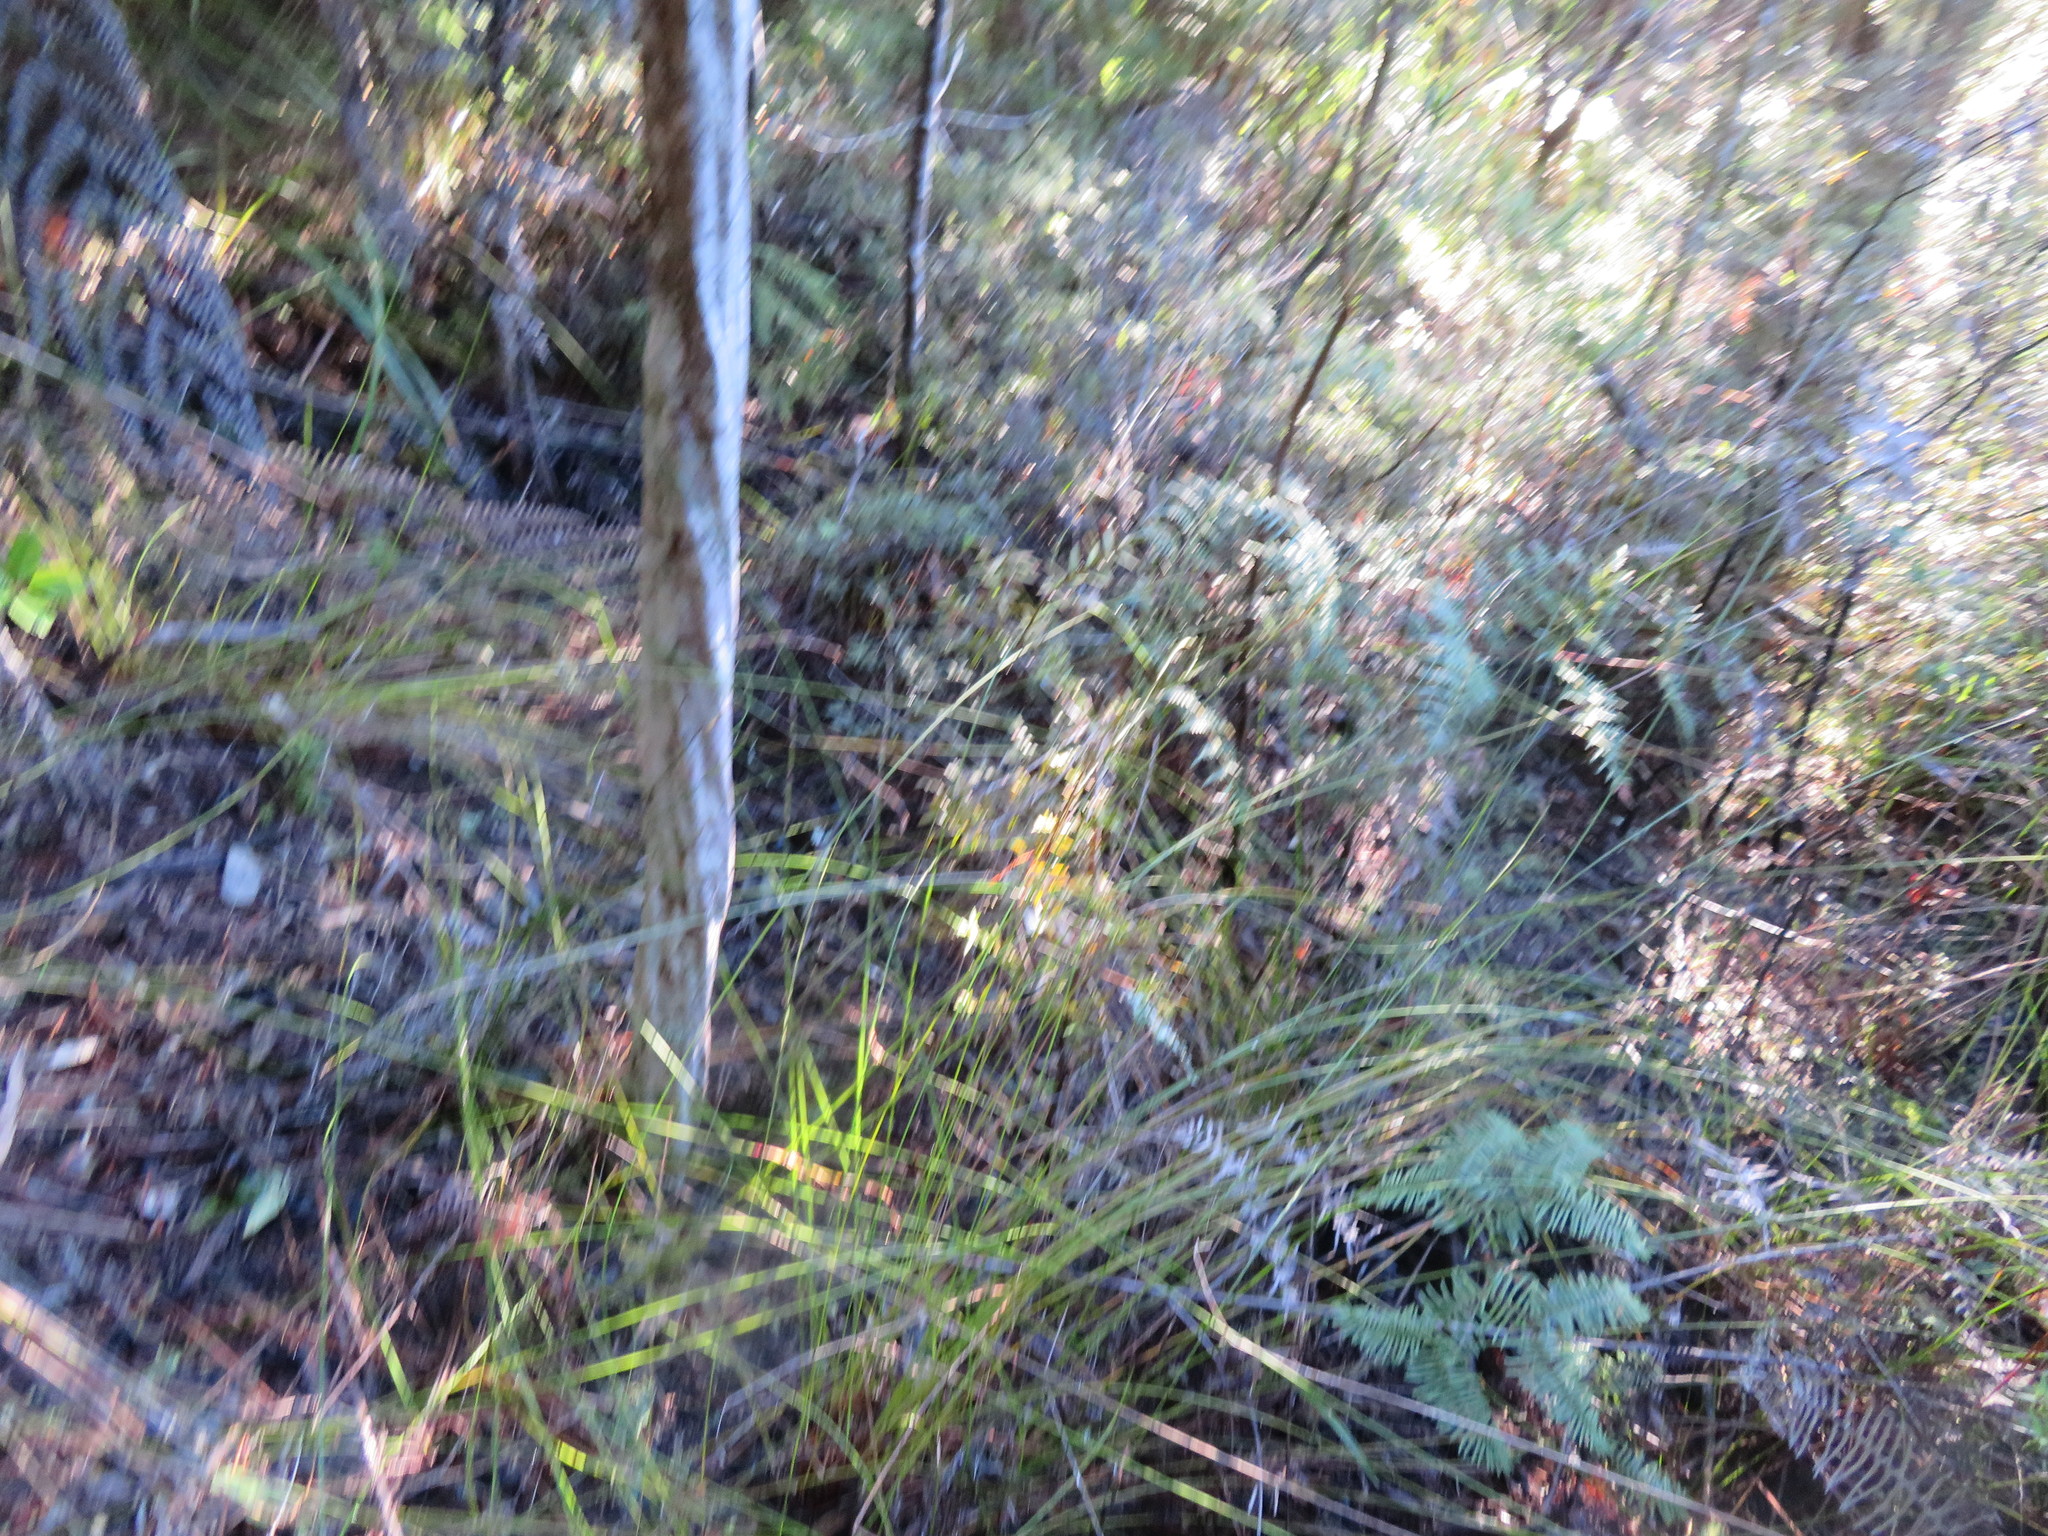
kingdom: Plantae
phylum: Tracheophyta
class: Polypodiopsida
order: Gleicheniales
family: Gleicheniaceae
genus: Gleichenia
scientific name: Gleichenia
